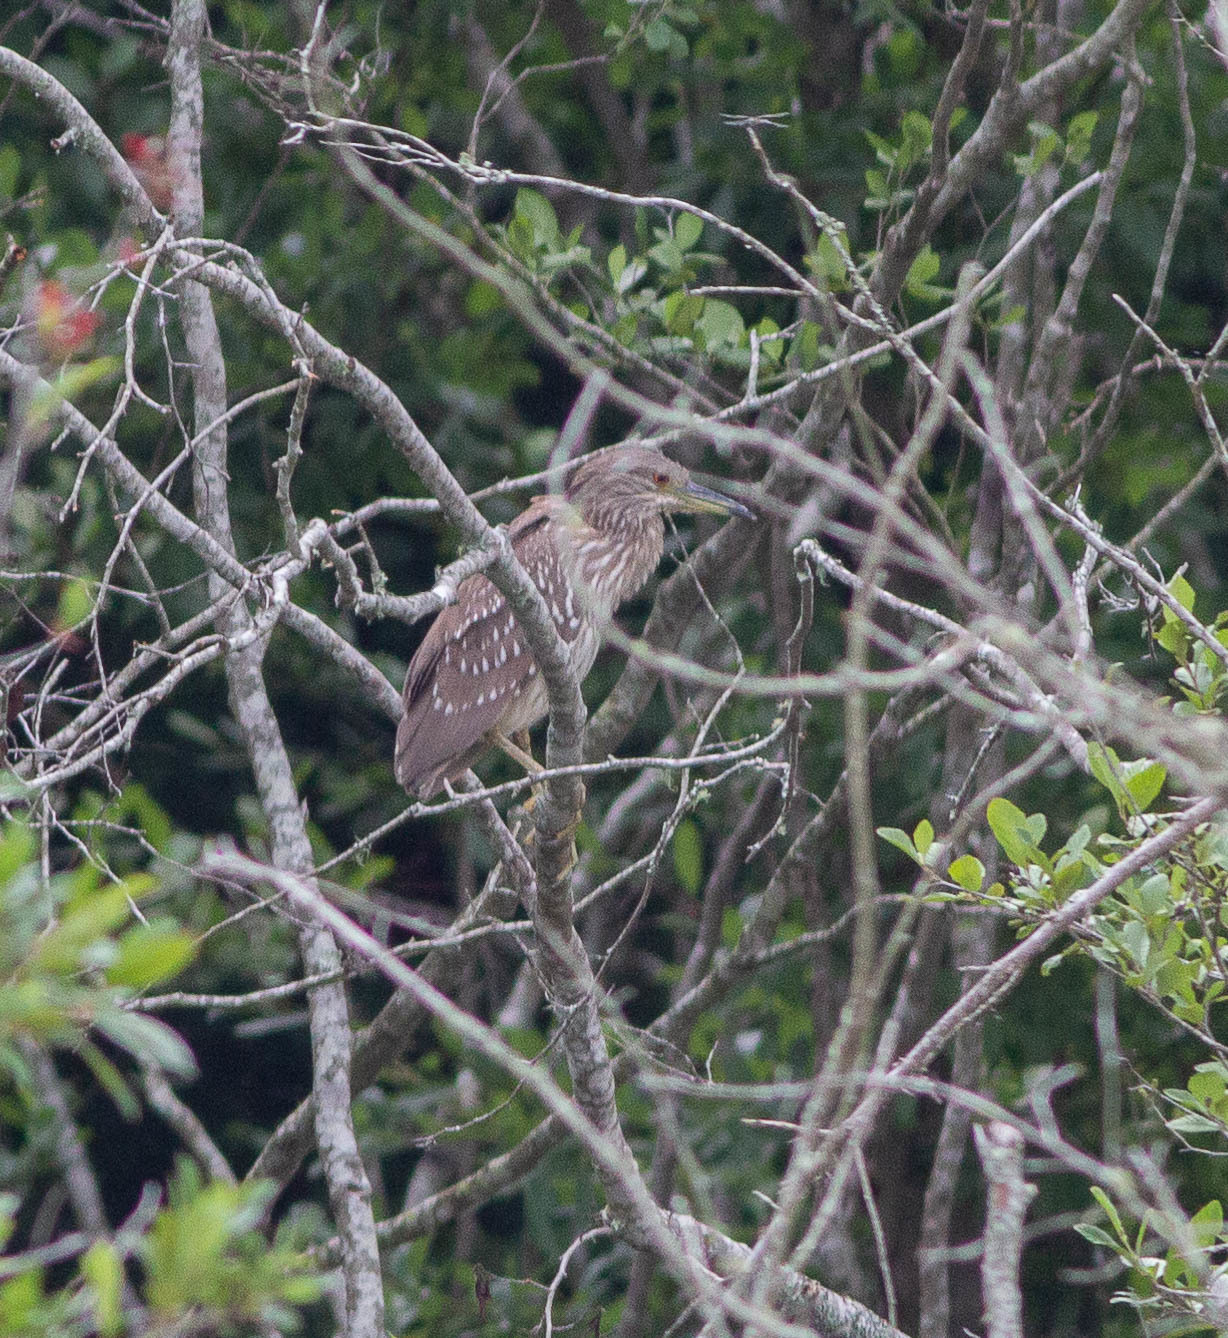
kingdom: Animalia
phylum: Chordata
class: Aves
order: Pelecaniformes
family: Ardeidae
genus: Nycticorax
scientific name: Nycticorax nycticorax
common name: Black-crowned night heron
